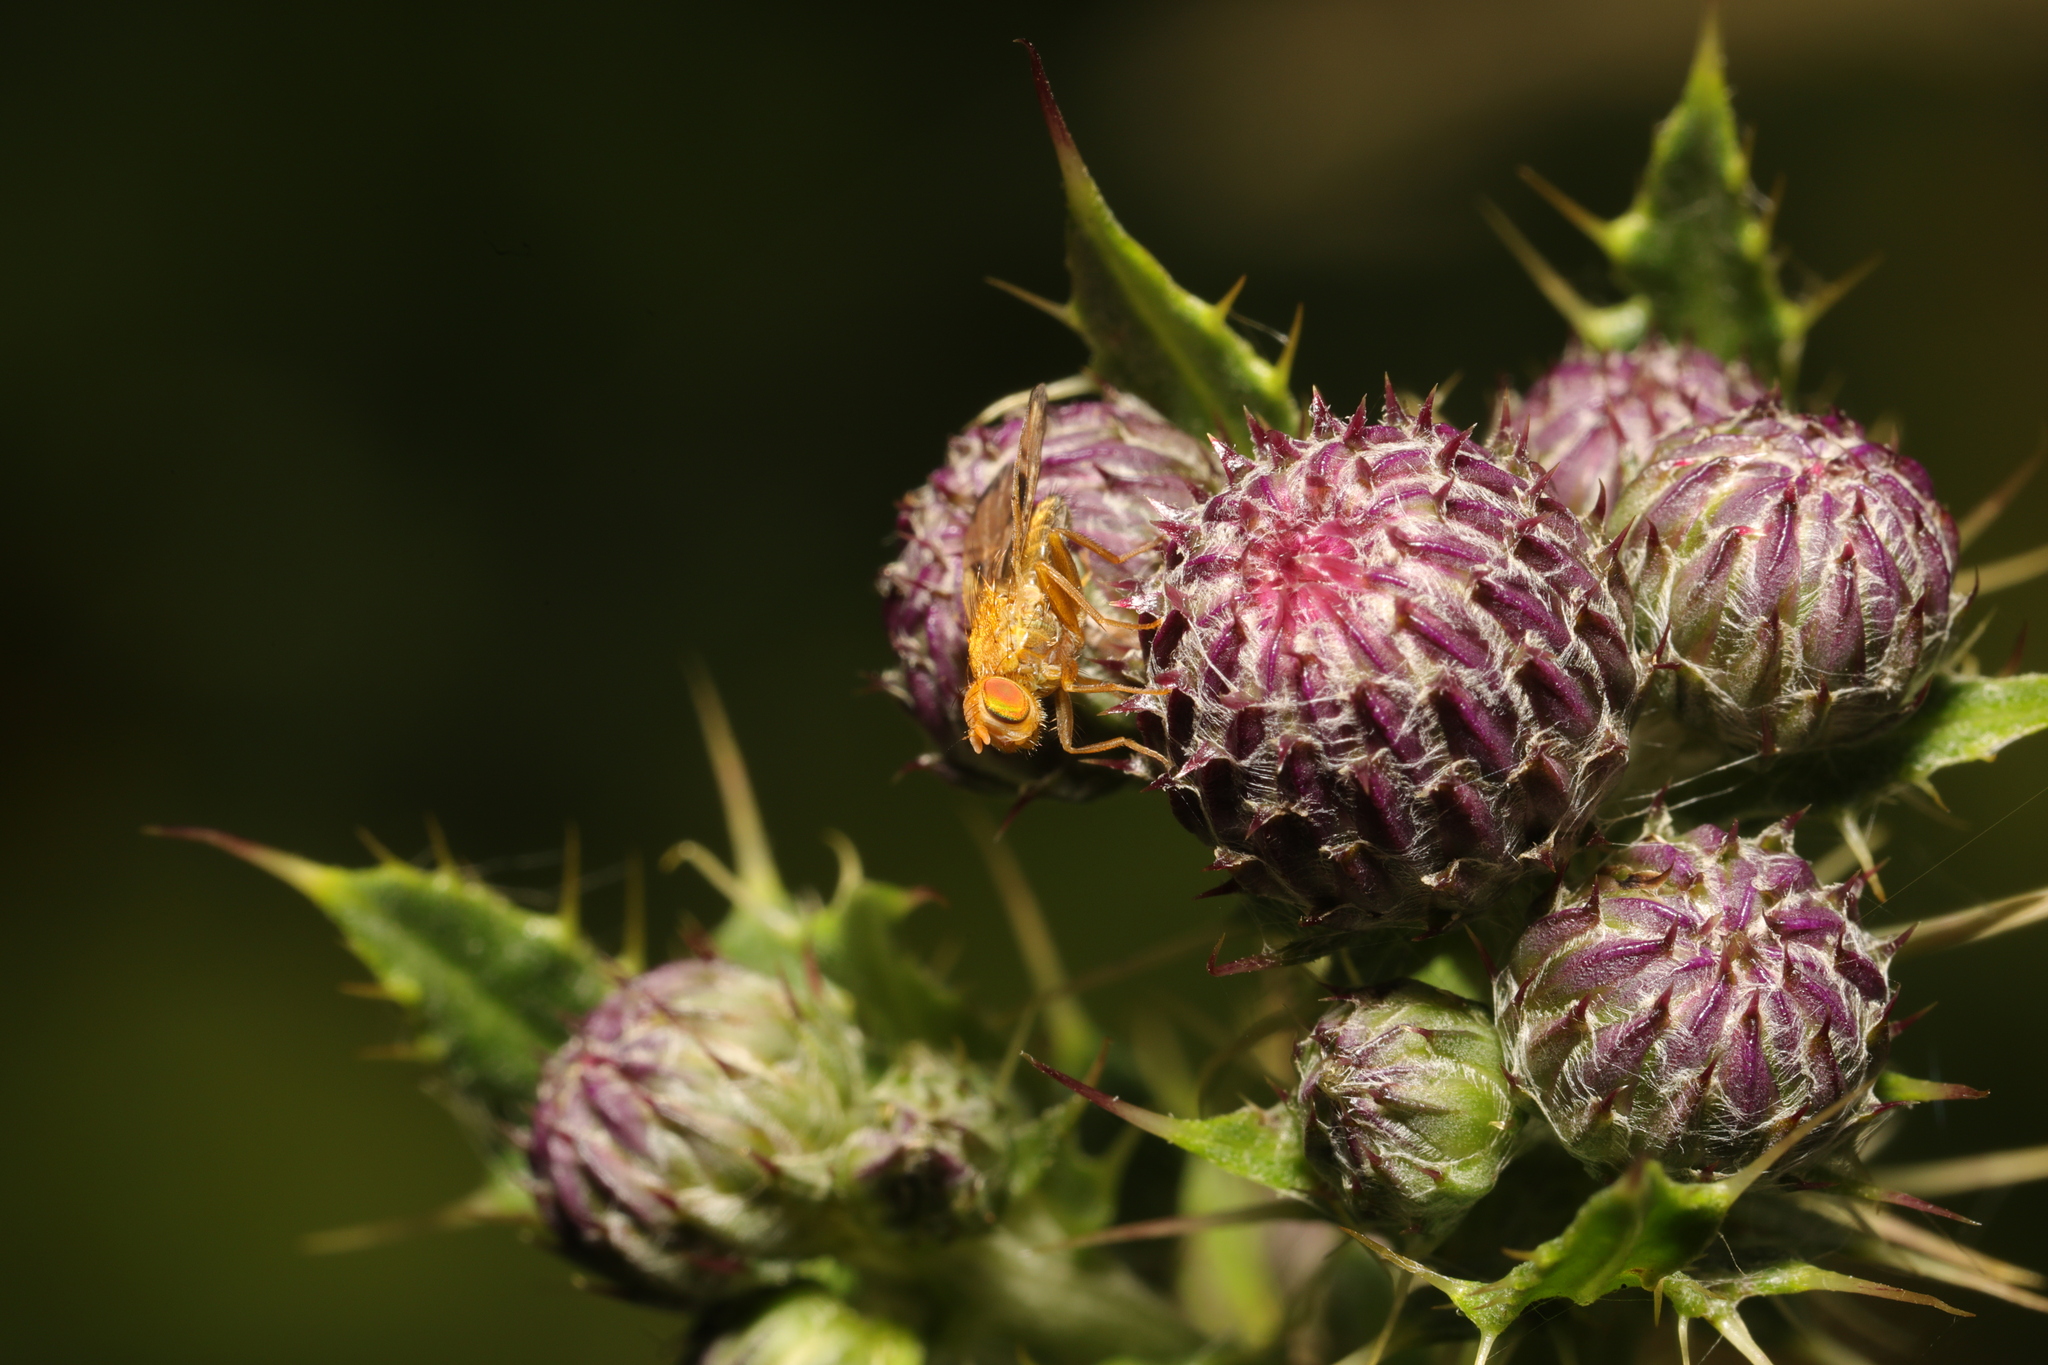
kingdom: Animalia
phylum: Arthropoda
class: Insecta
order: Diptera
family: Tephritidae
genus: Xyphosia
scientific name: Xyphosia miliaria
